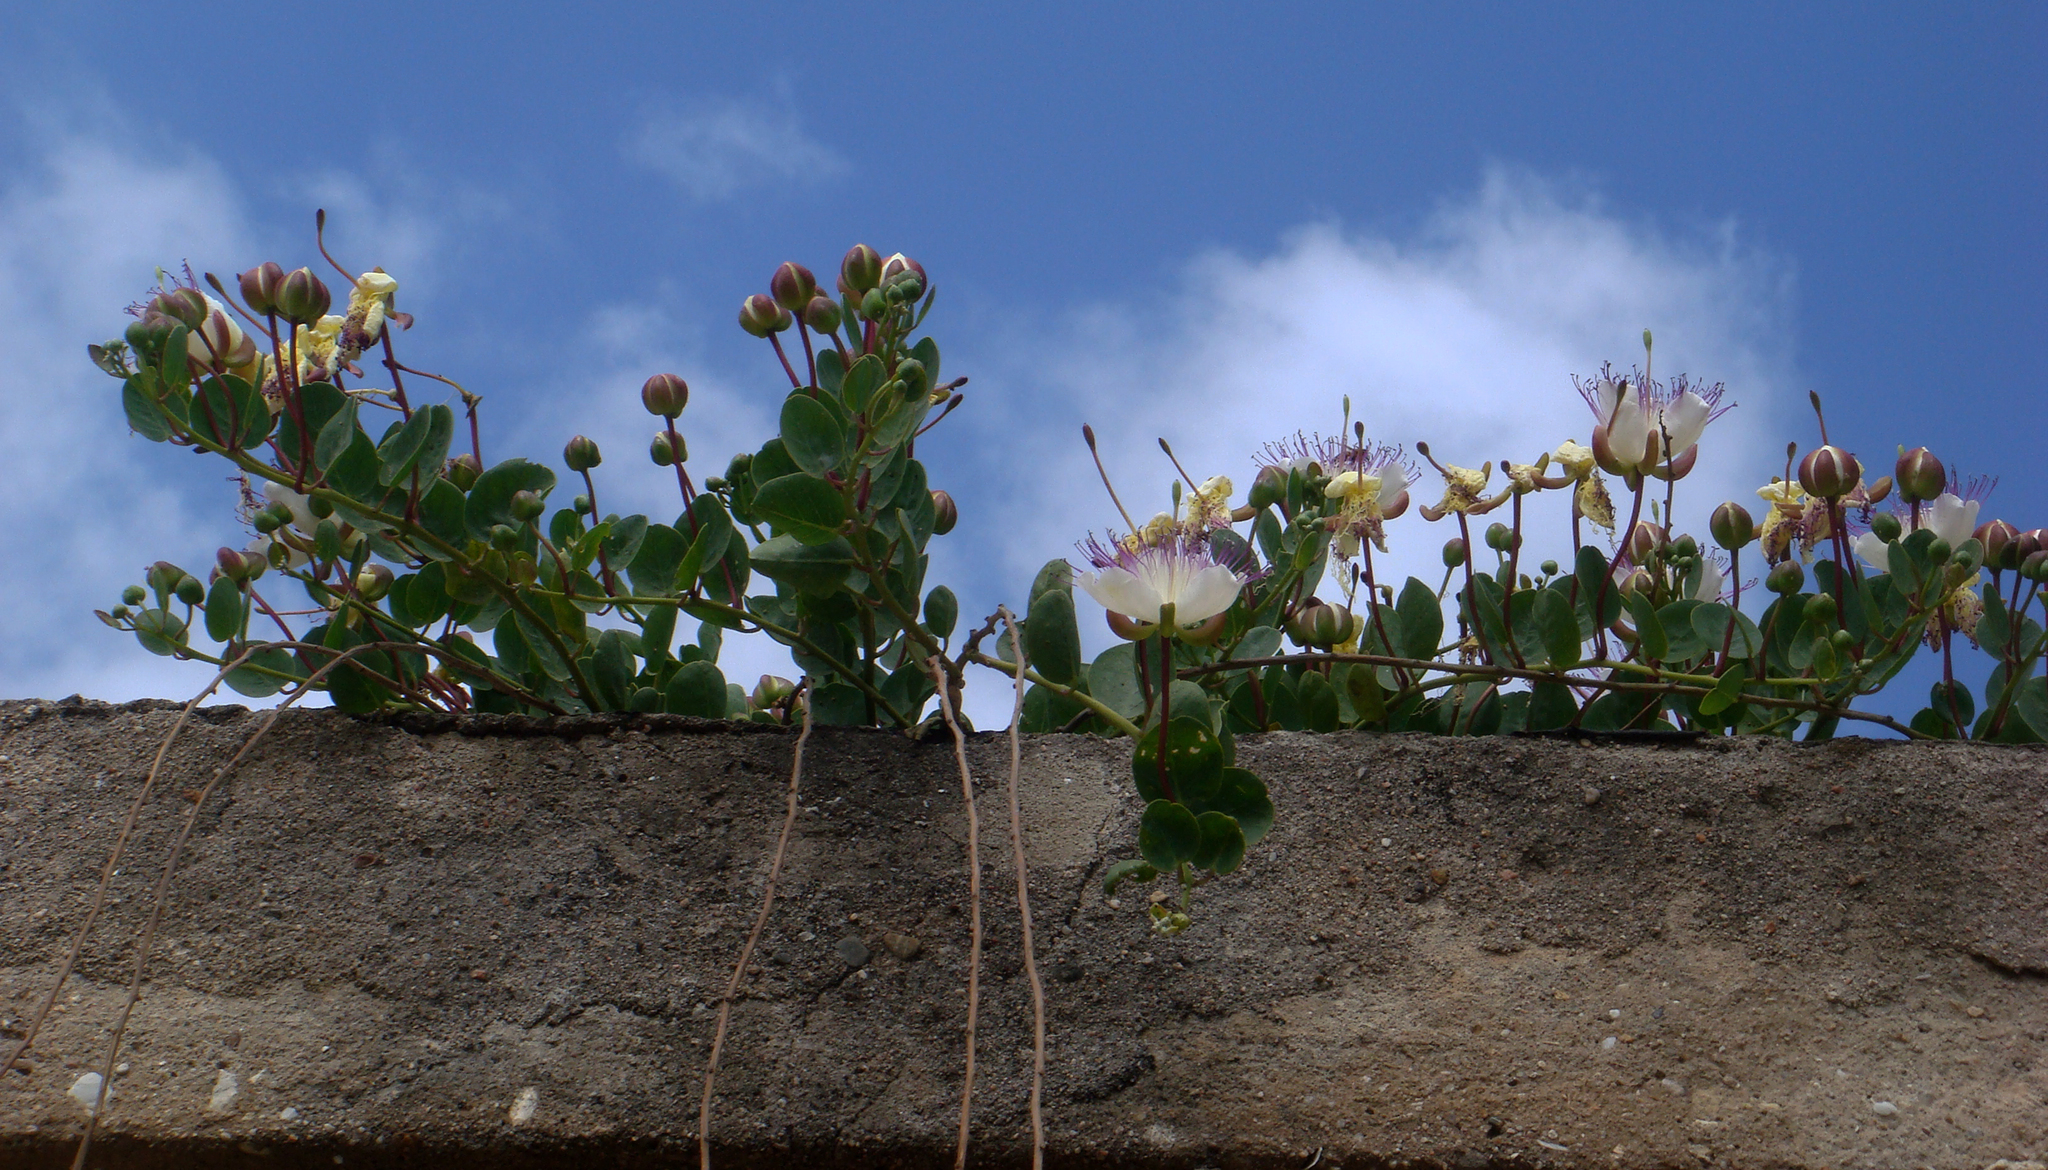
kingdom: Plantae
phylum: Tracheophyta
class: Magnoliopsida
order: Brassicales
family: Capparaceae
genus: Capparis
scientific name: Capparis spinosa
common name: Caper
